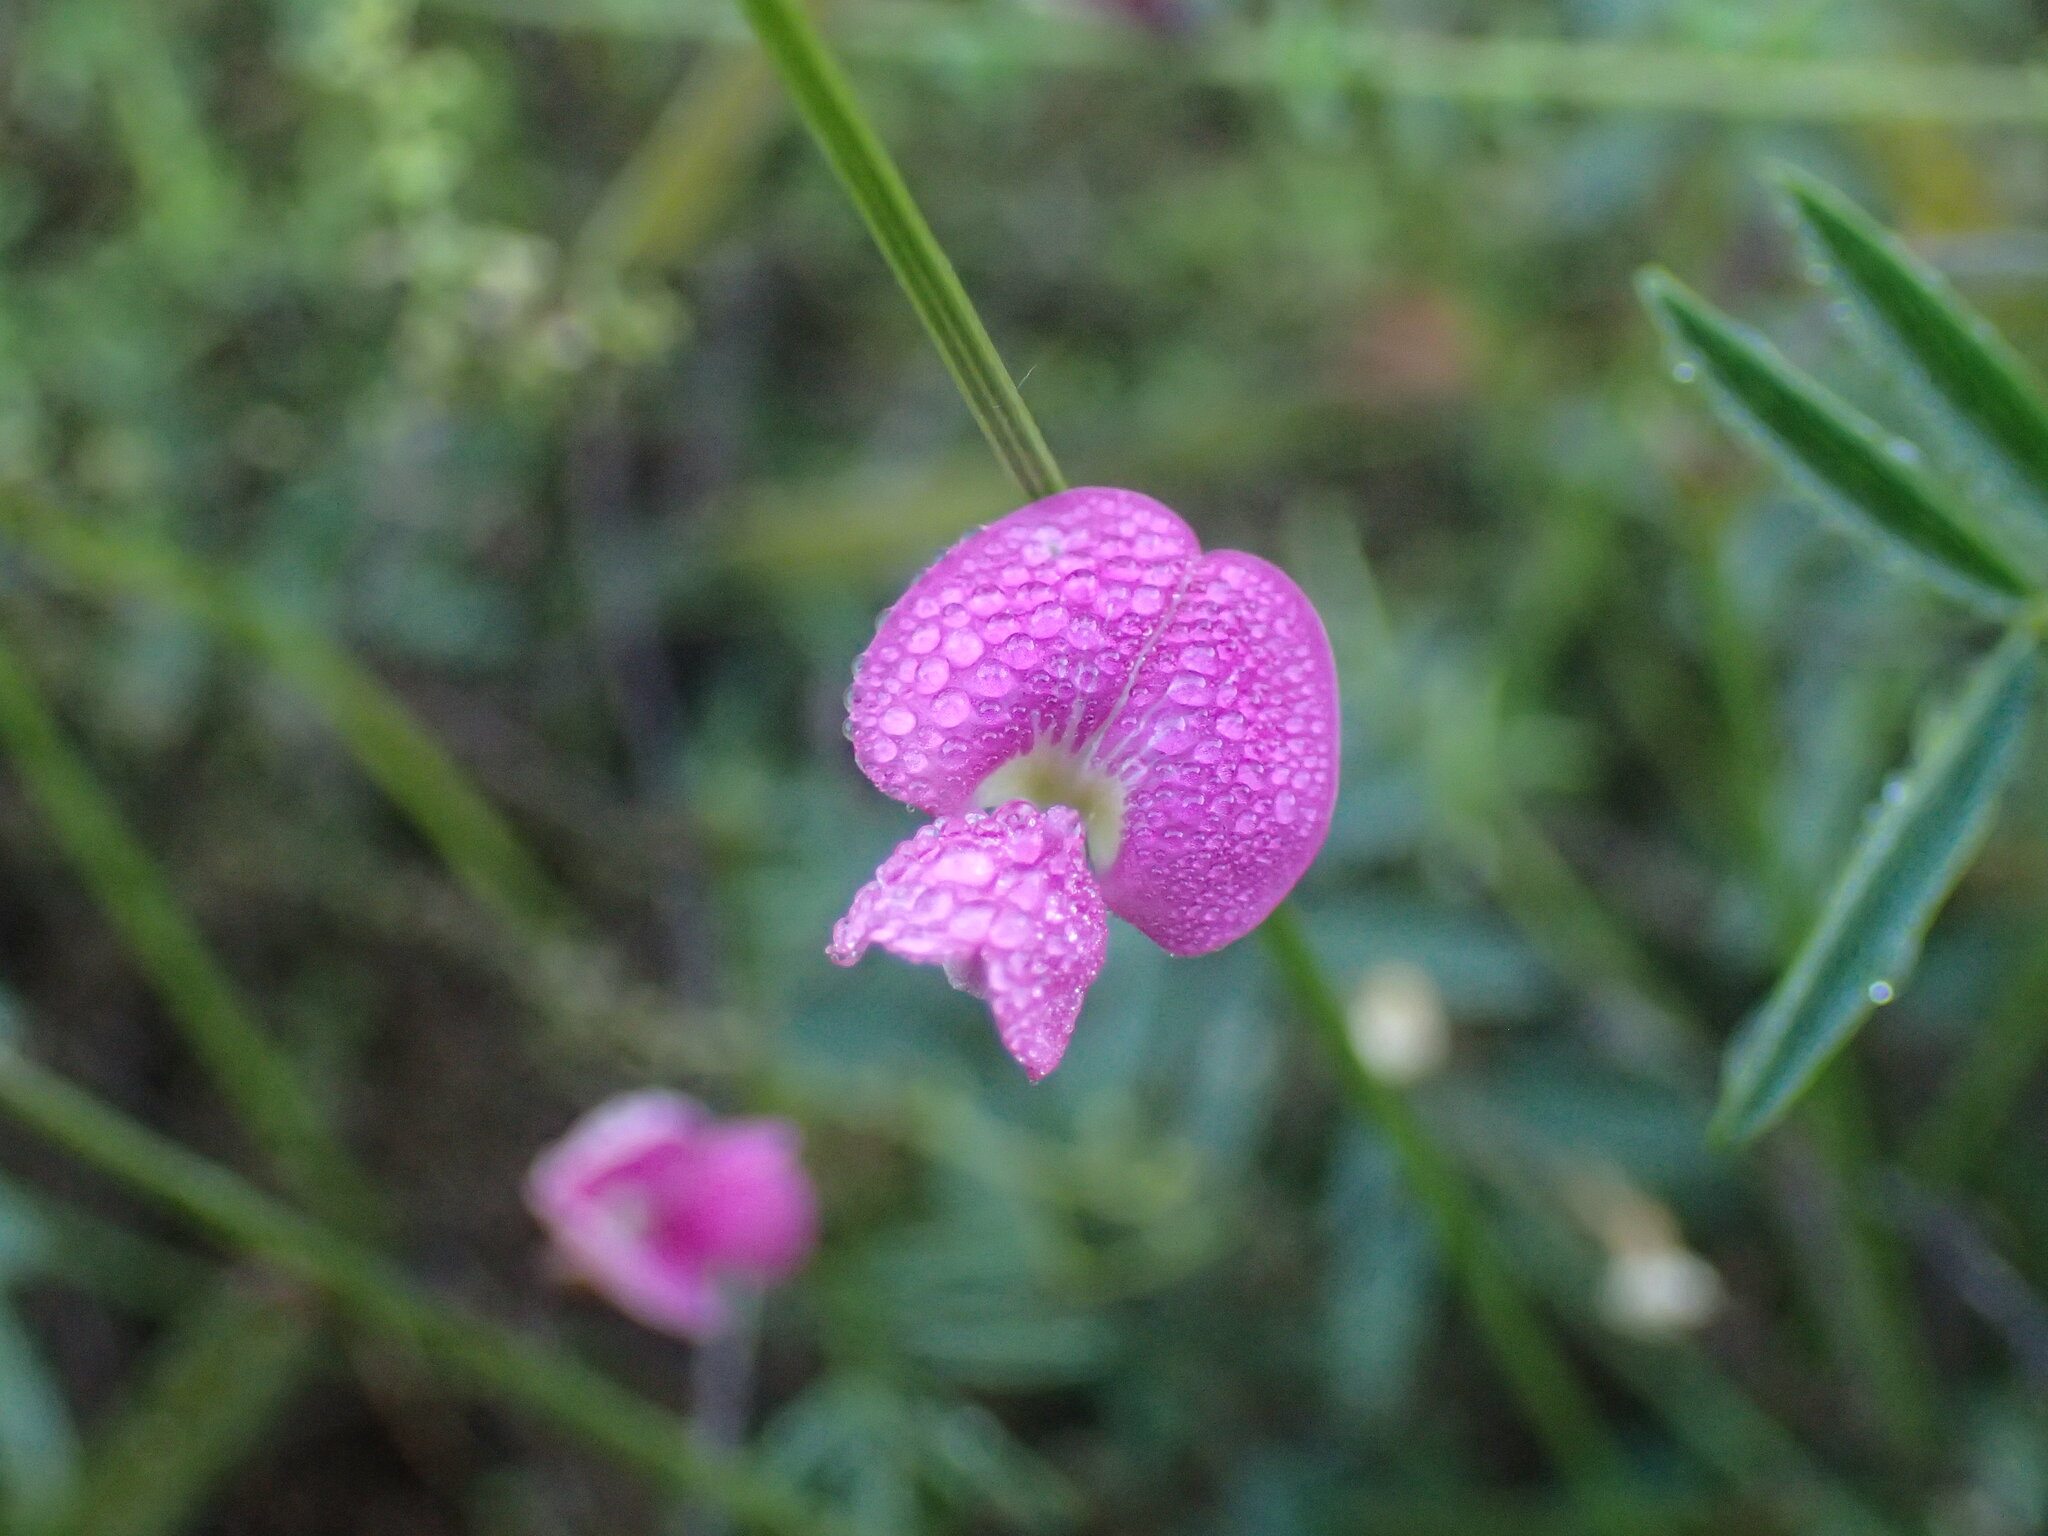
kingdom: Plantae
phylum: Tracheophyta
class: Magnoliopsida
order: Fabales
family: Fabaceae
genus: Tephrosia
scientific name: Tephrosia capensis
